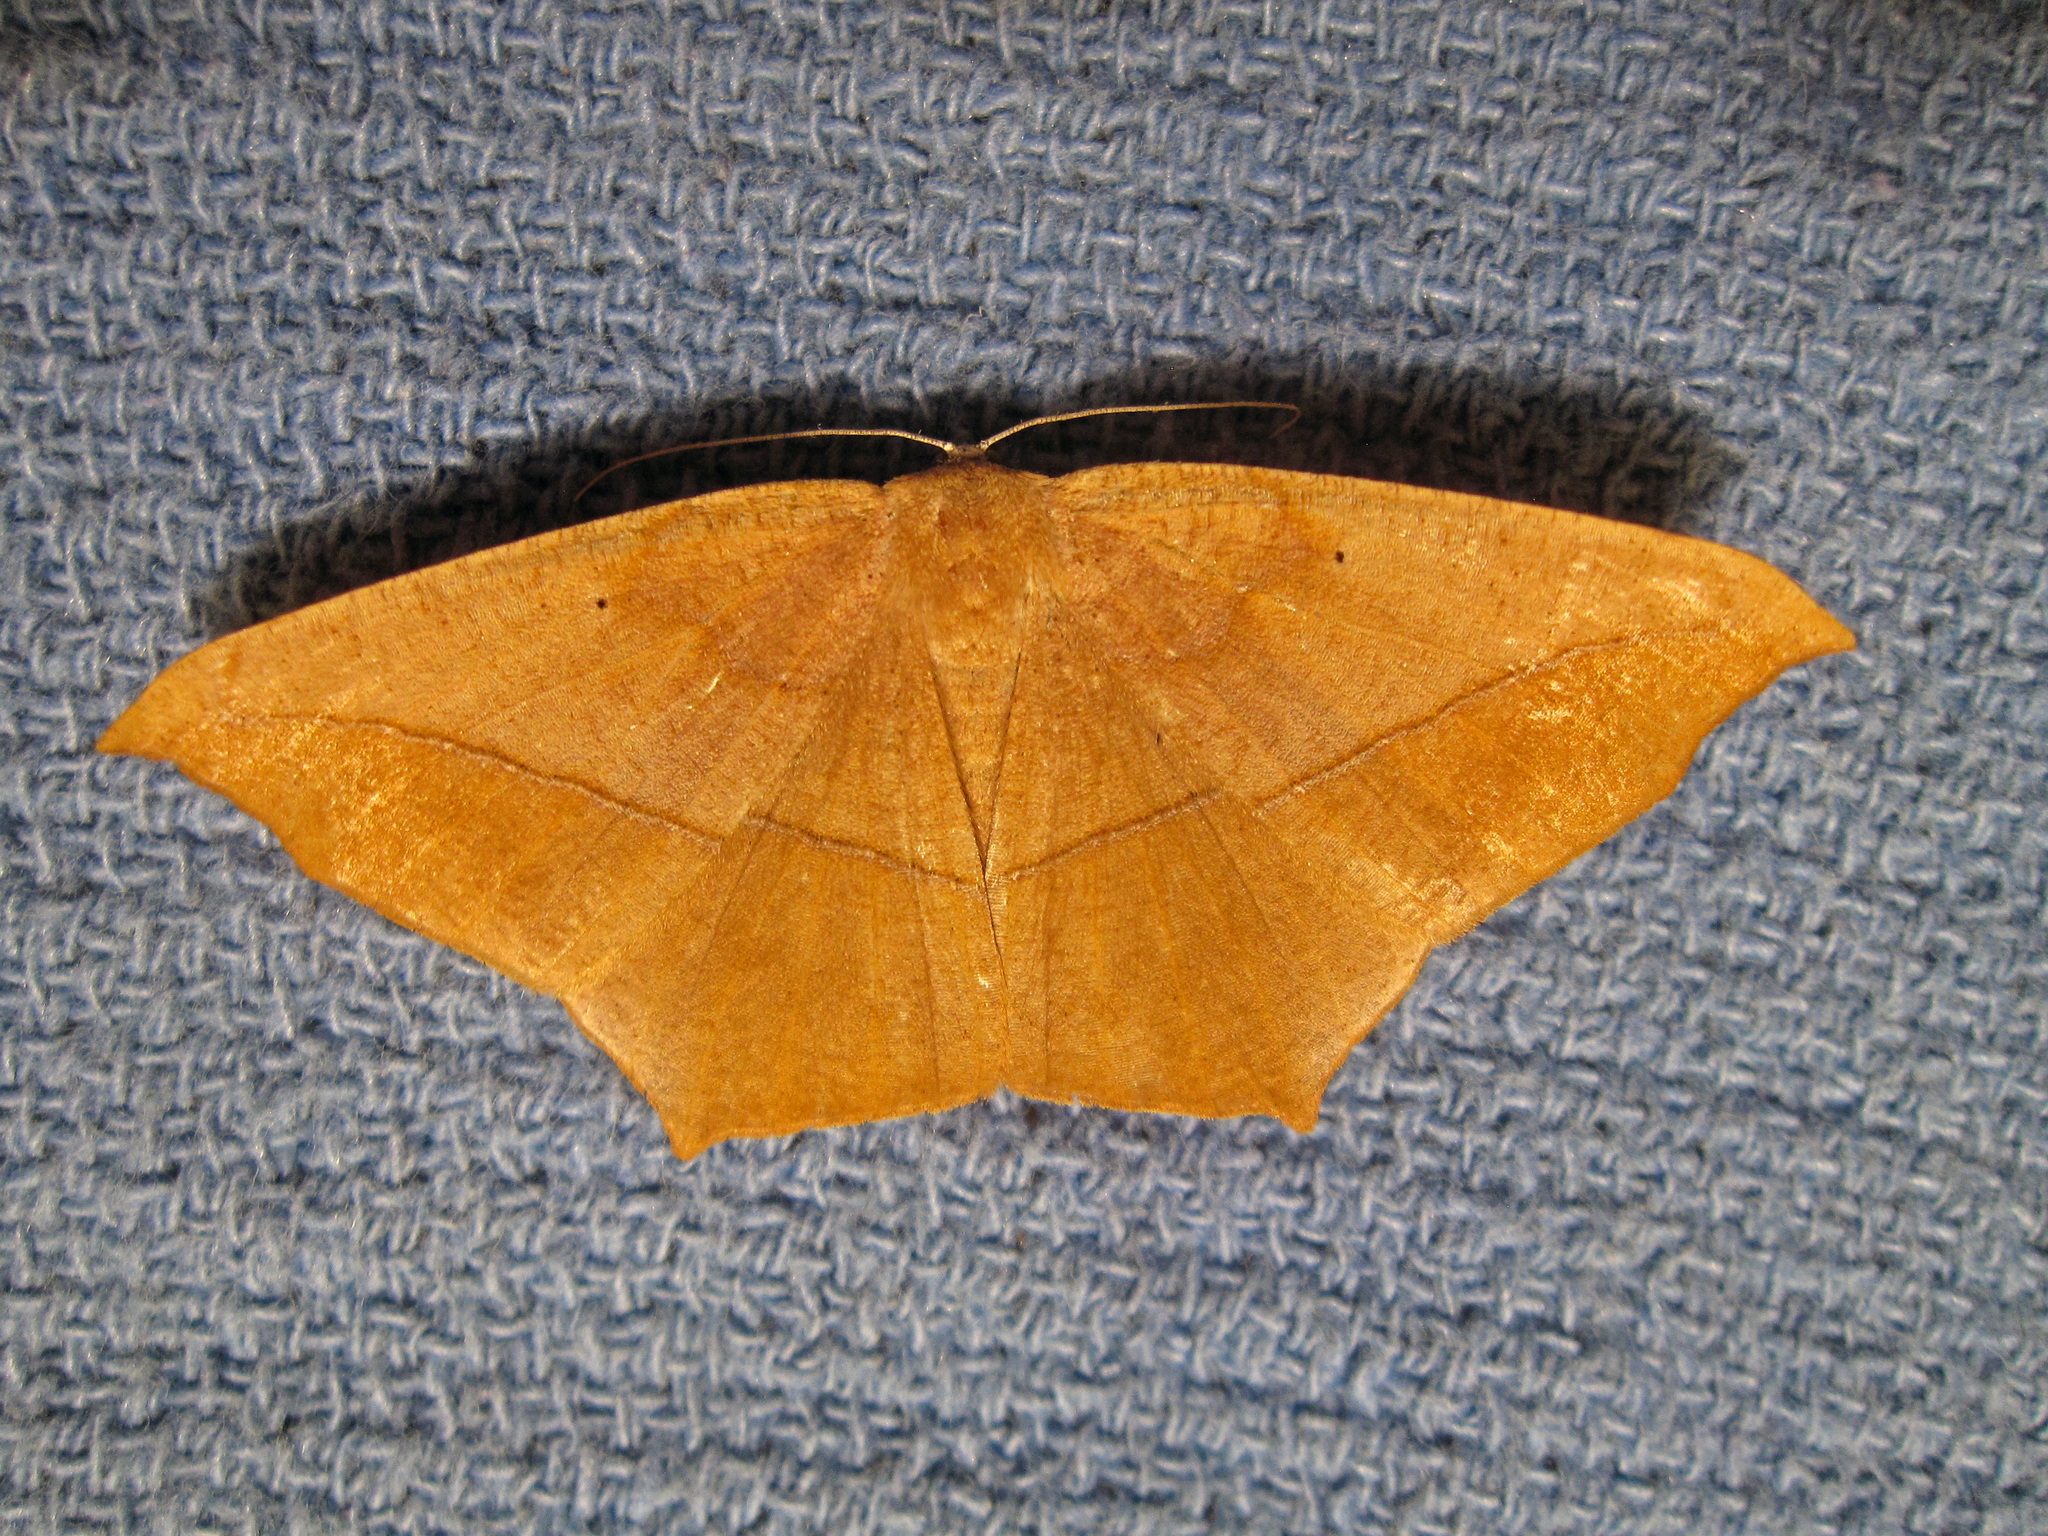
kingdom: Animalia
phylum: Arthropoda
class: Insecta
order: Lepidoptera
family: Geometridae
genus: Prochoerodes
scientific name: Prochoerodes lineola
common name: Large maple spanworm
